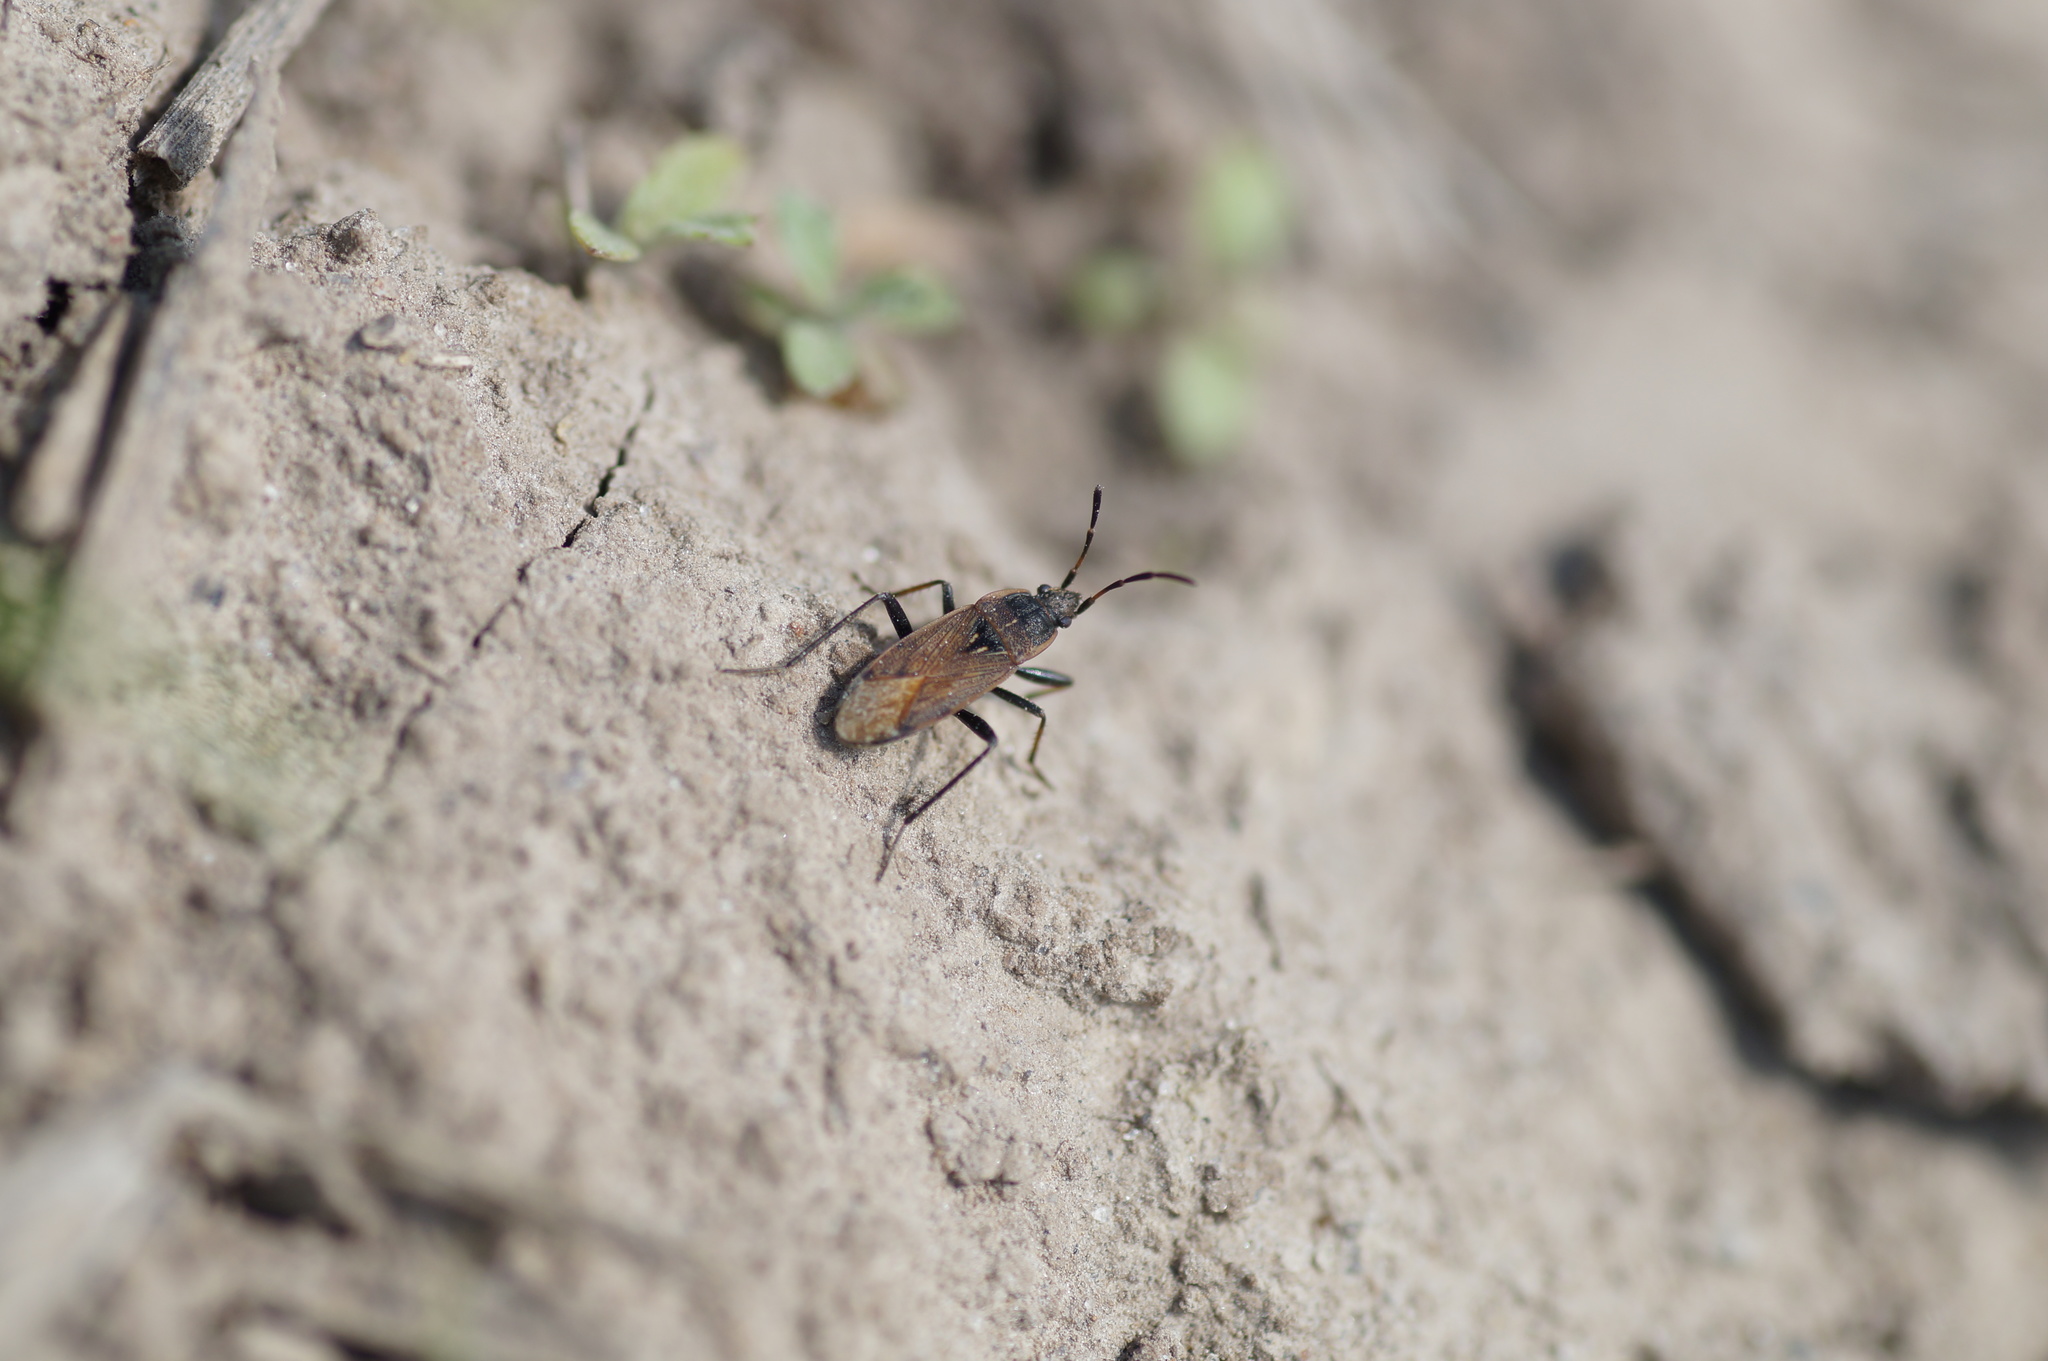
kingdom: Animalia
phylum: Arthropoda
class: Insecta
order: Hemiptera
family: Rhyparochromidae
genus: Panaorus
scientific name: Panaorus adspersus
